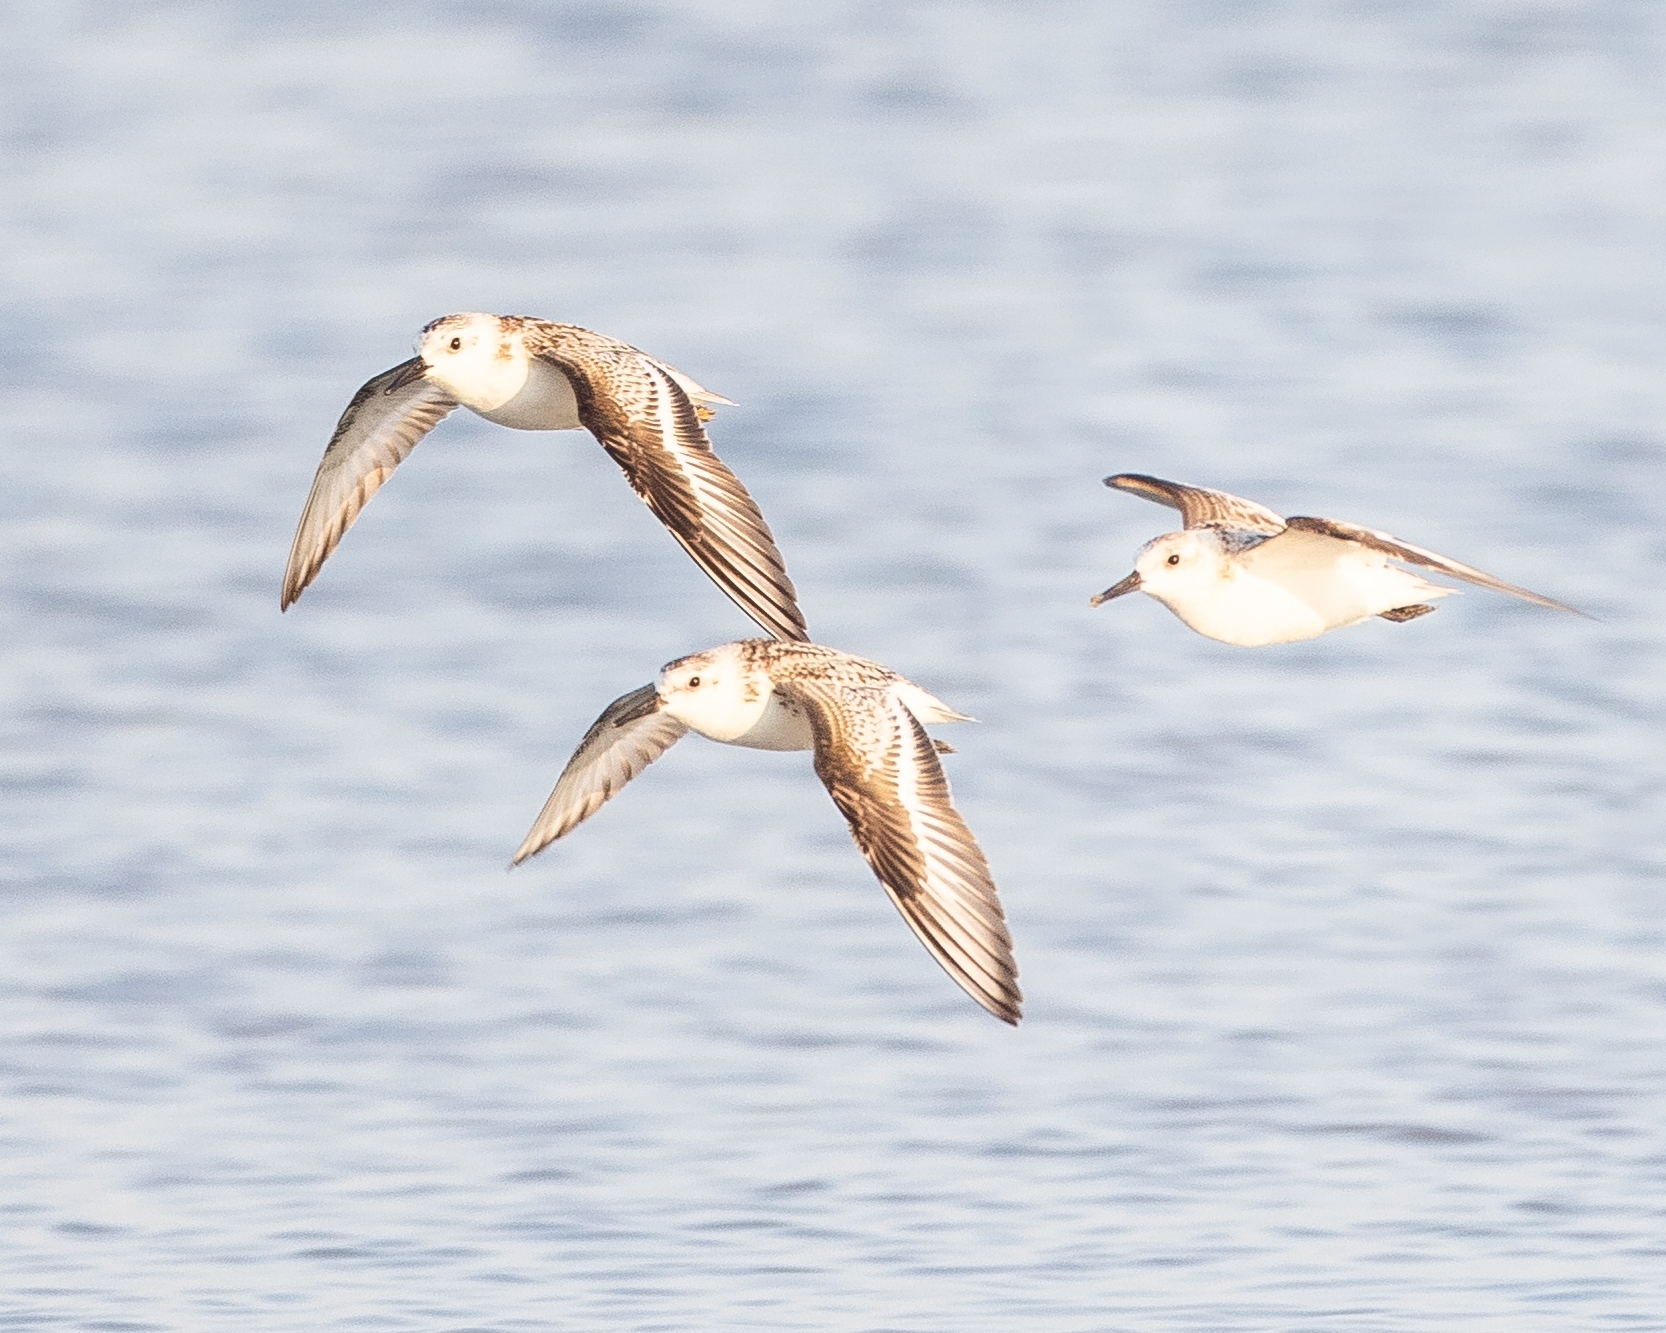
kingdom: Animalia
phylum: Chordata
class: Aves
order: Charadriiformes
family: Scolopacidae
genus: Calidris
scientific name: Calidris alba
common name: Sanderling
